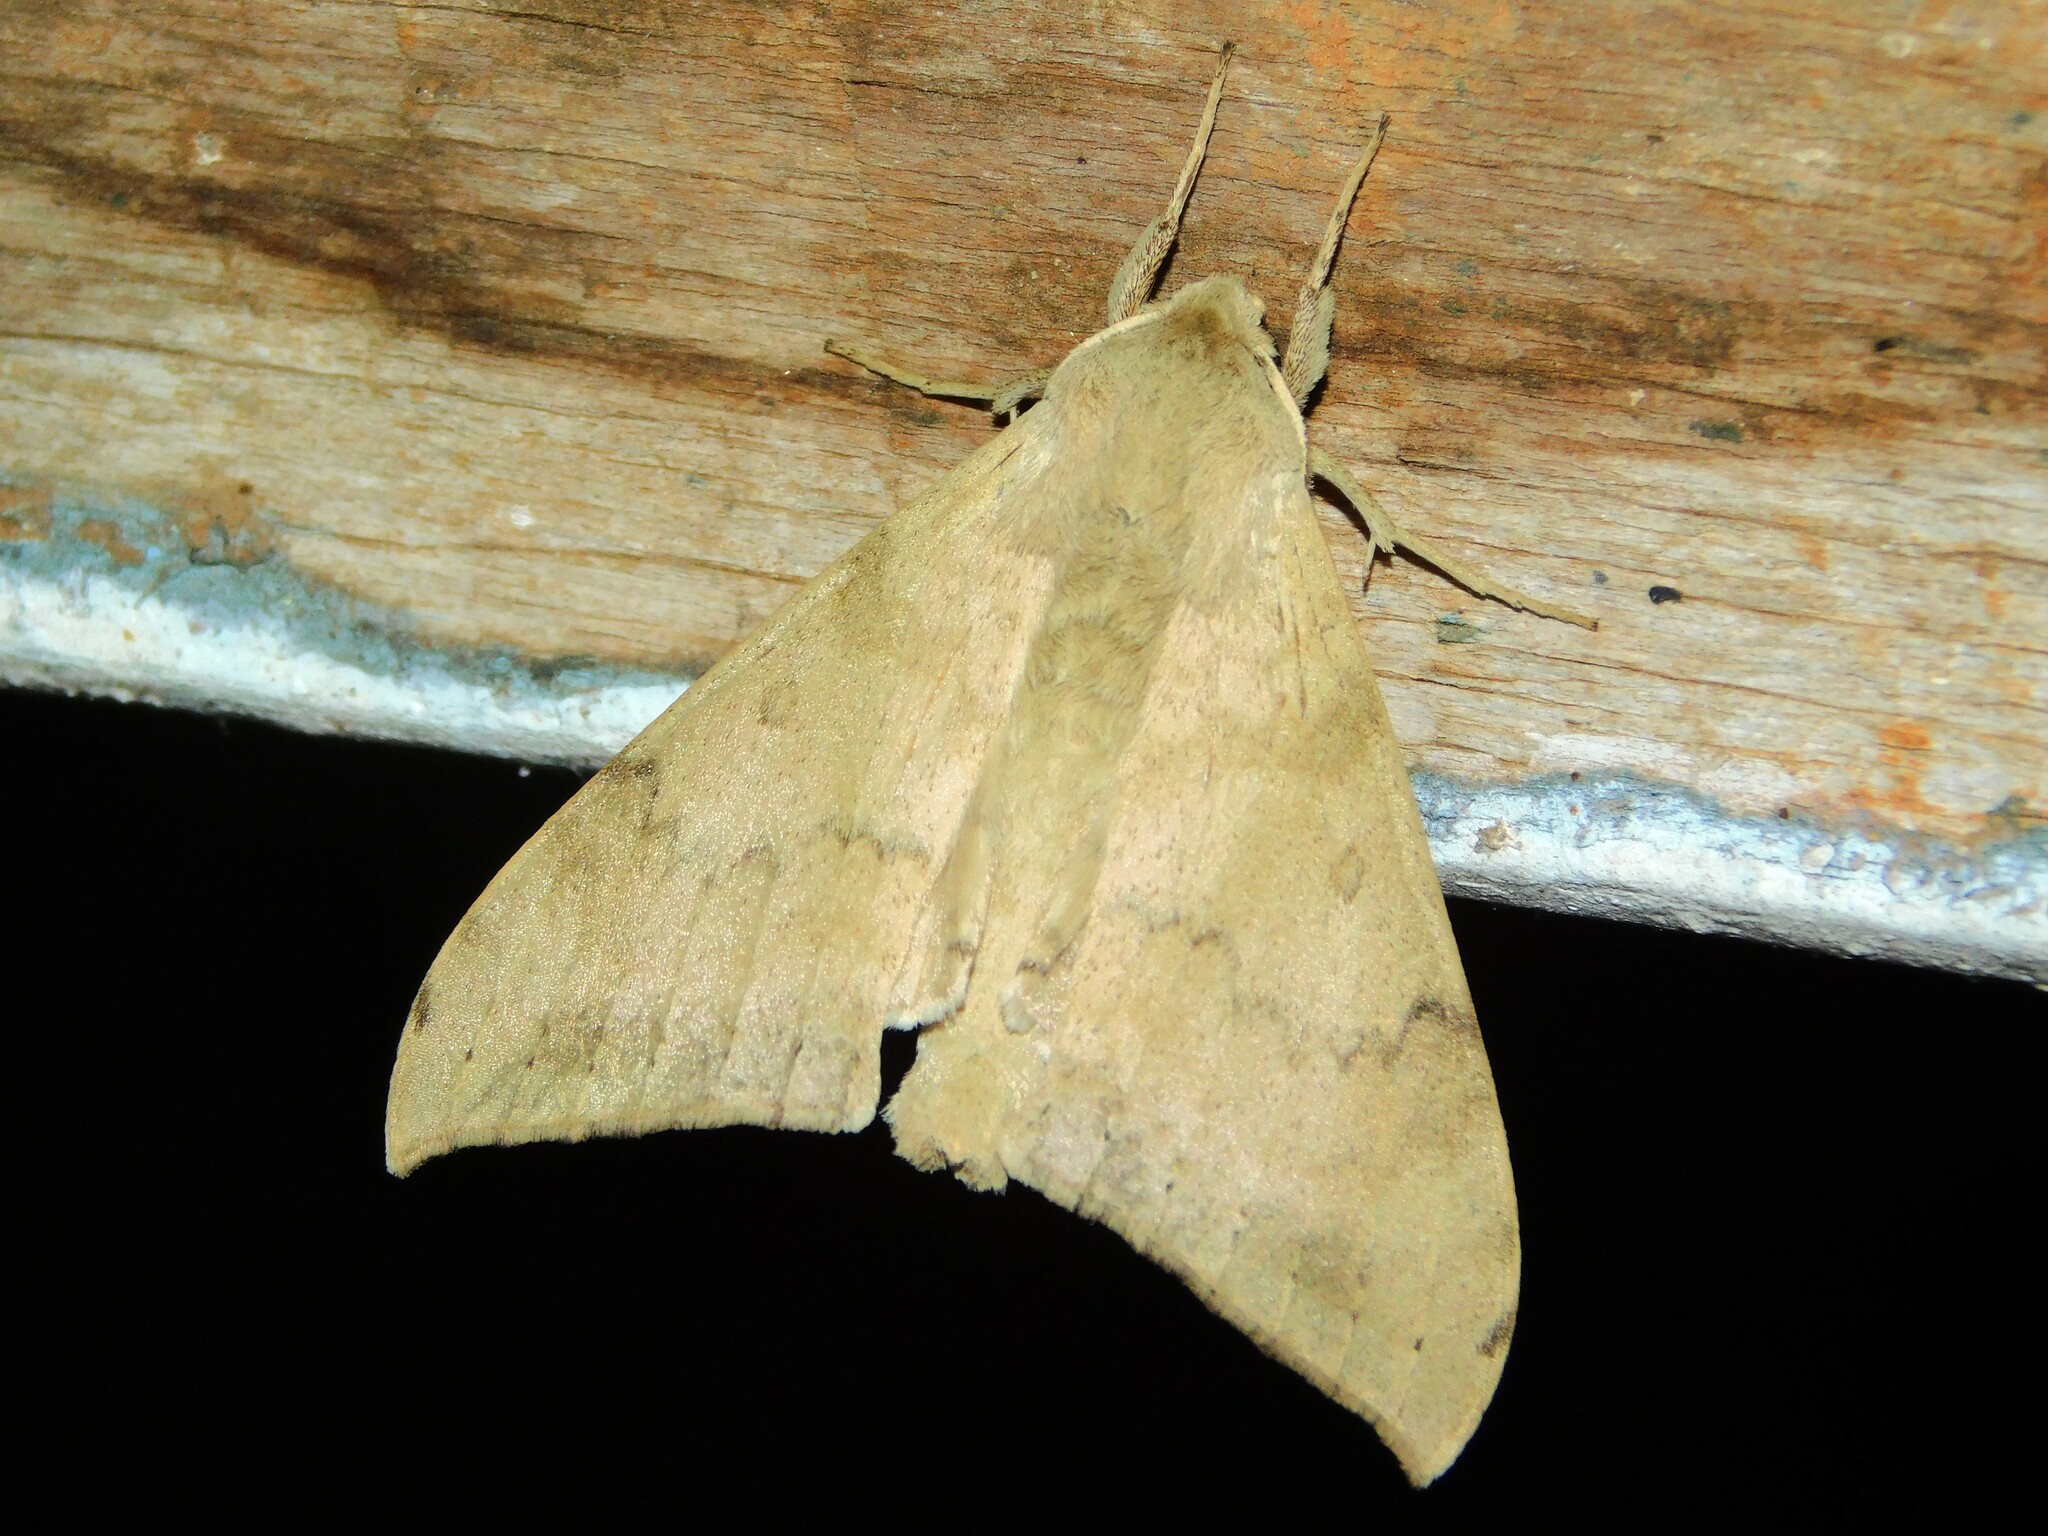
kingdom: Animalia
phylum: Arthropoda
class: Insecta
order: Lepidoptera
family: Sphingidae
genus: Andriasa
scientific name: Andriasa contraria
